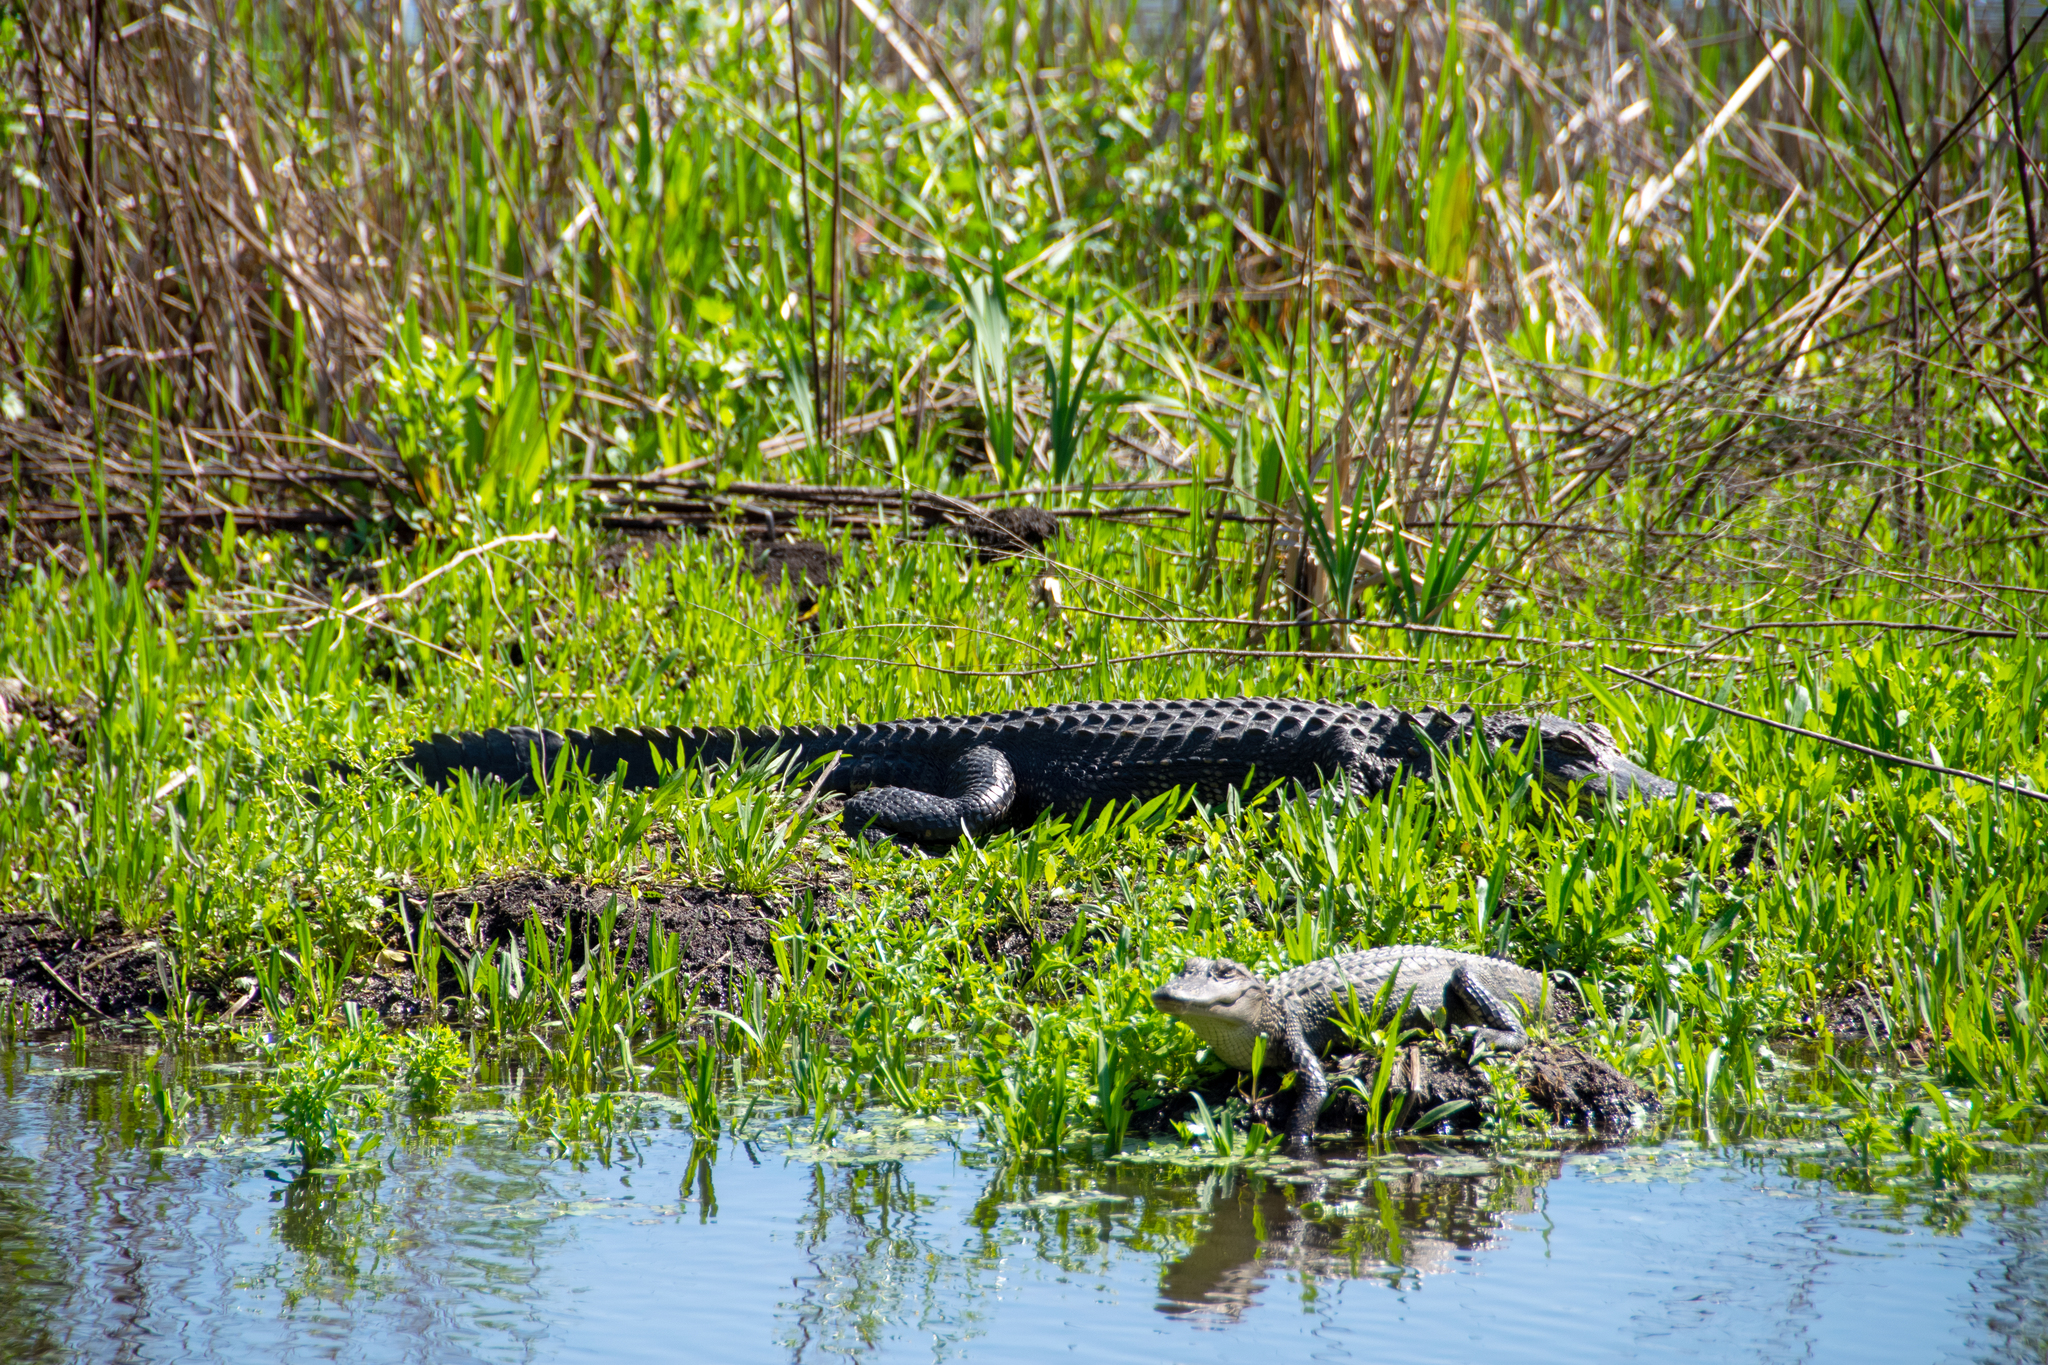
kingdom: Animalia
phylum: Chordata
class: Crocodylia
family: Alligatoridae
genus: Alligator
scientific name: Alligator mississippiensis
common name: American alligator
